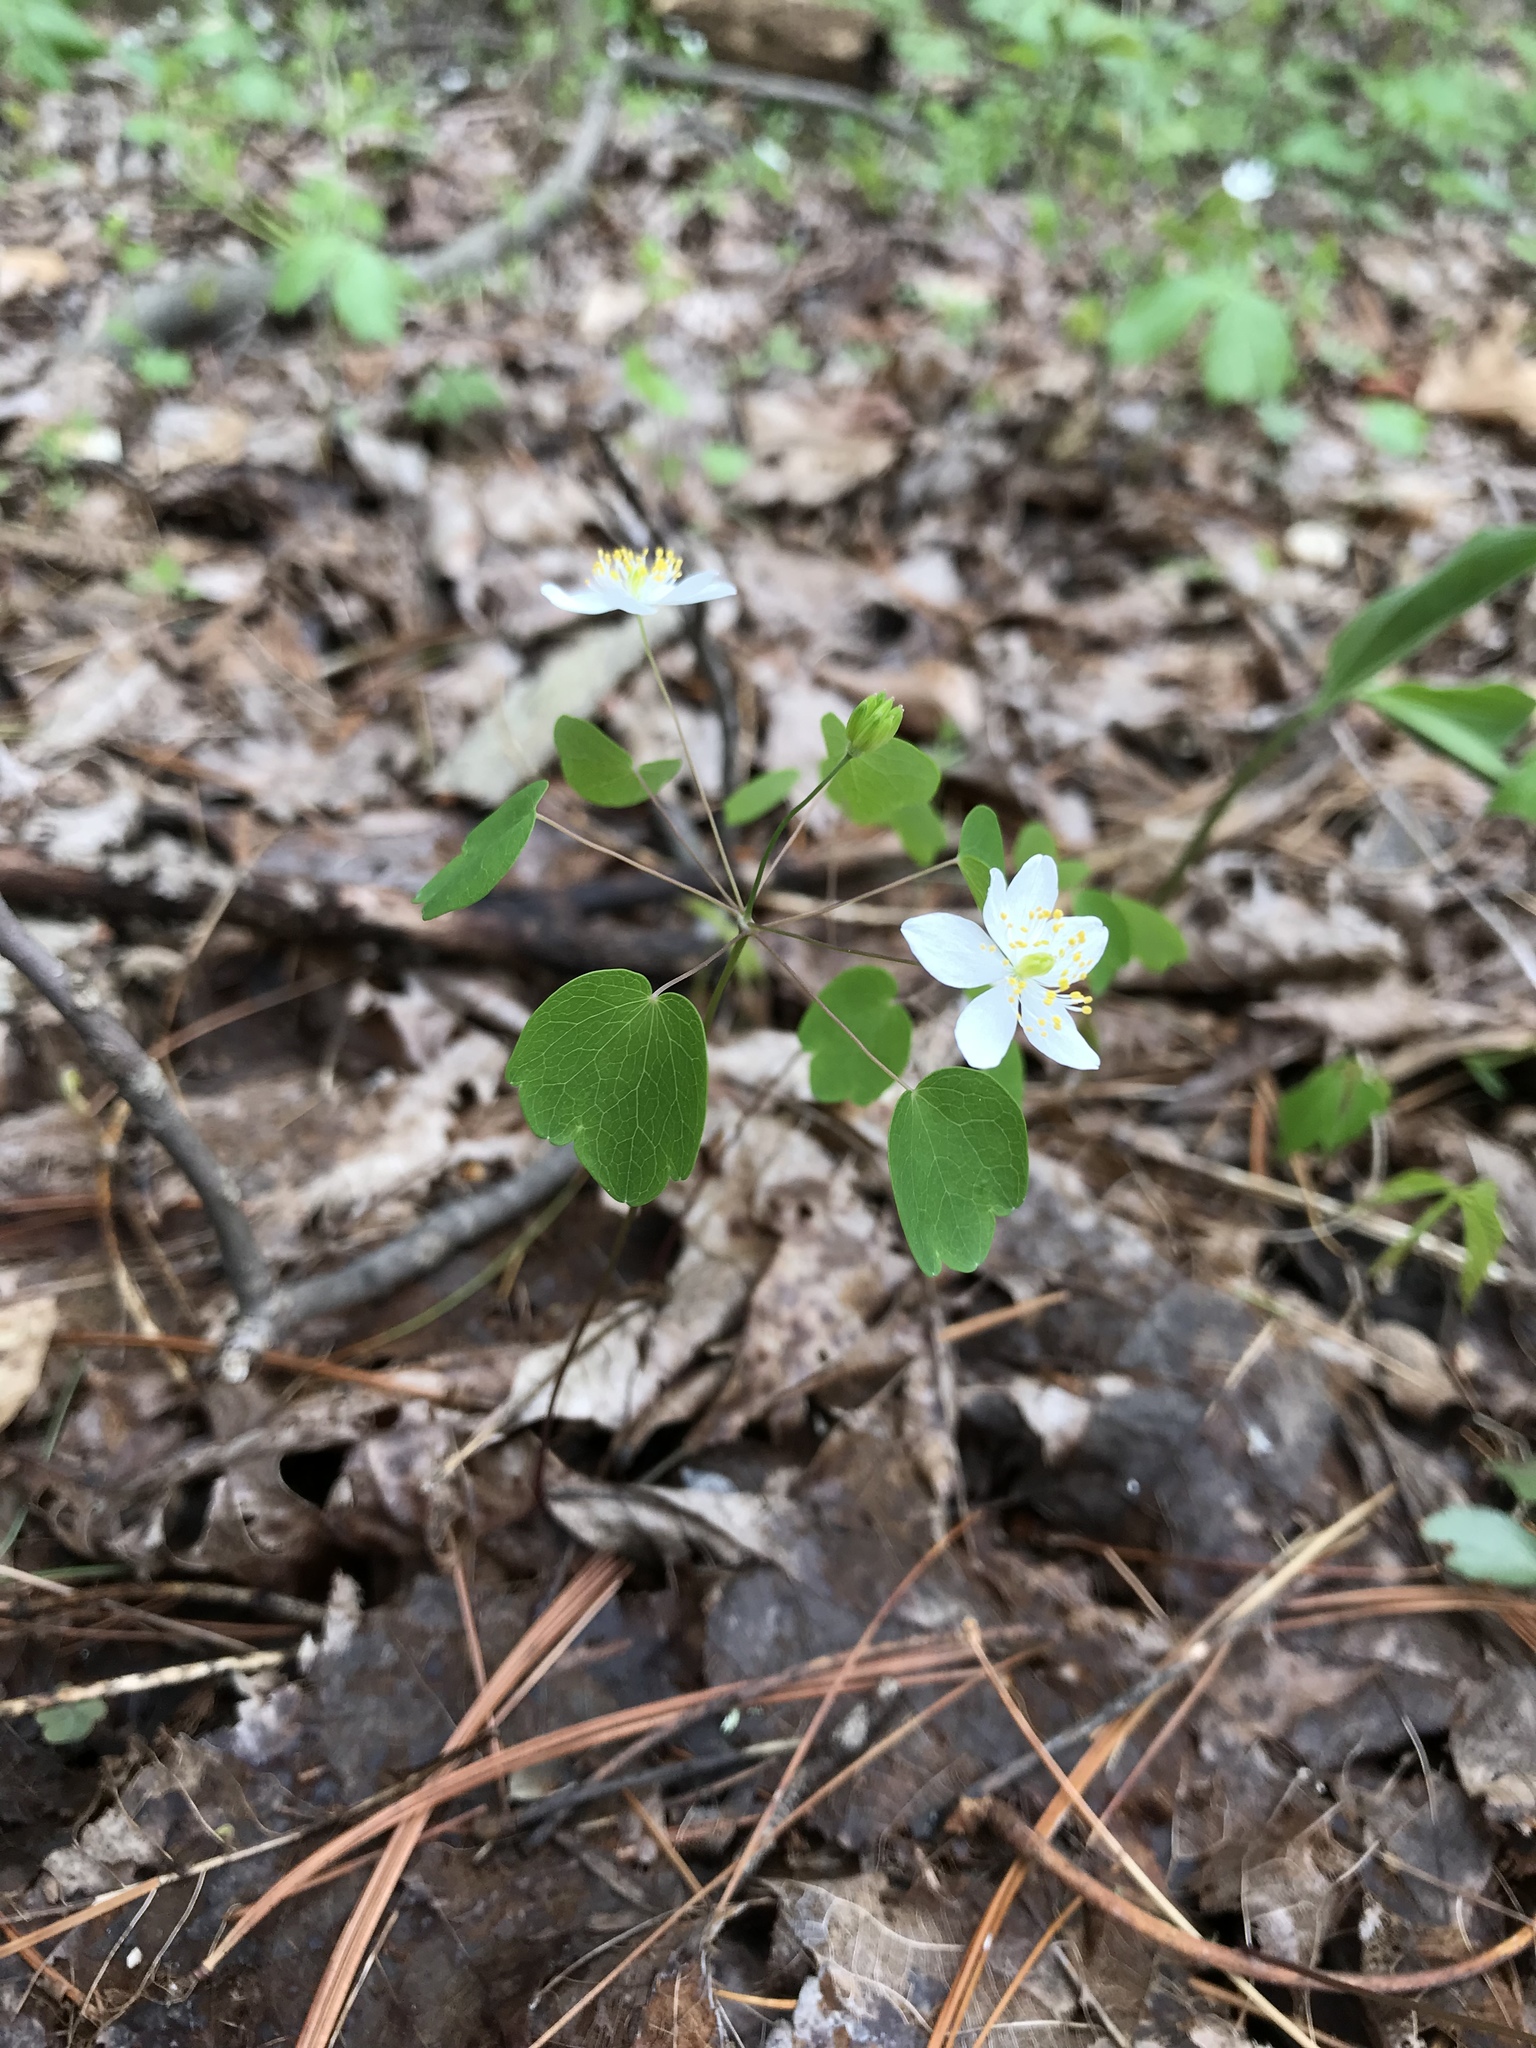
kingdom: Plantae
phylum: Tracheophyta
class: Magnoliopsida
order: Ranunculales
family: Ranunculaceae
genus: Thalictrum
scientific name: Thalictrum thalictroides
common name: Rue-anemone
